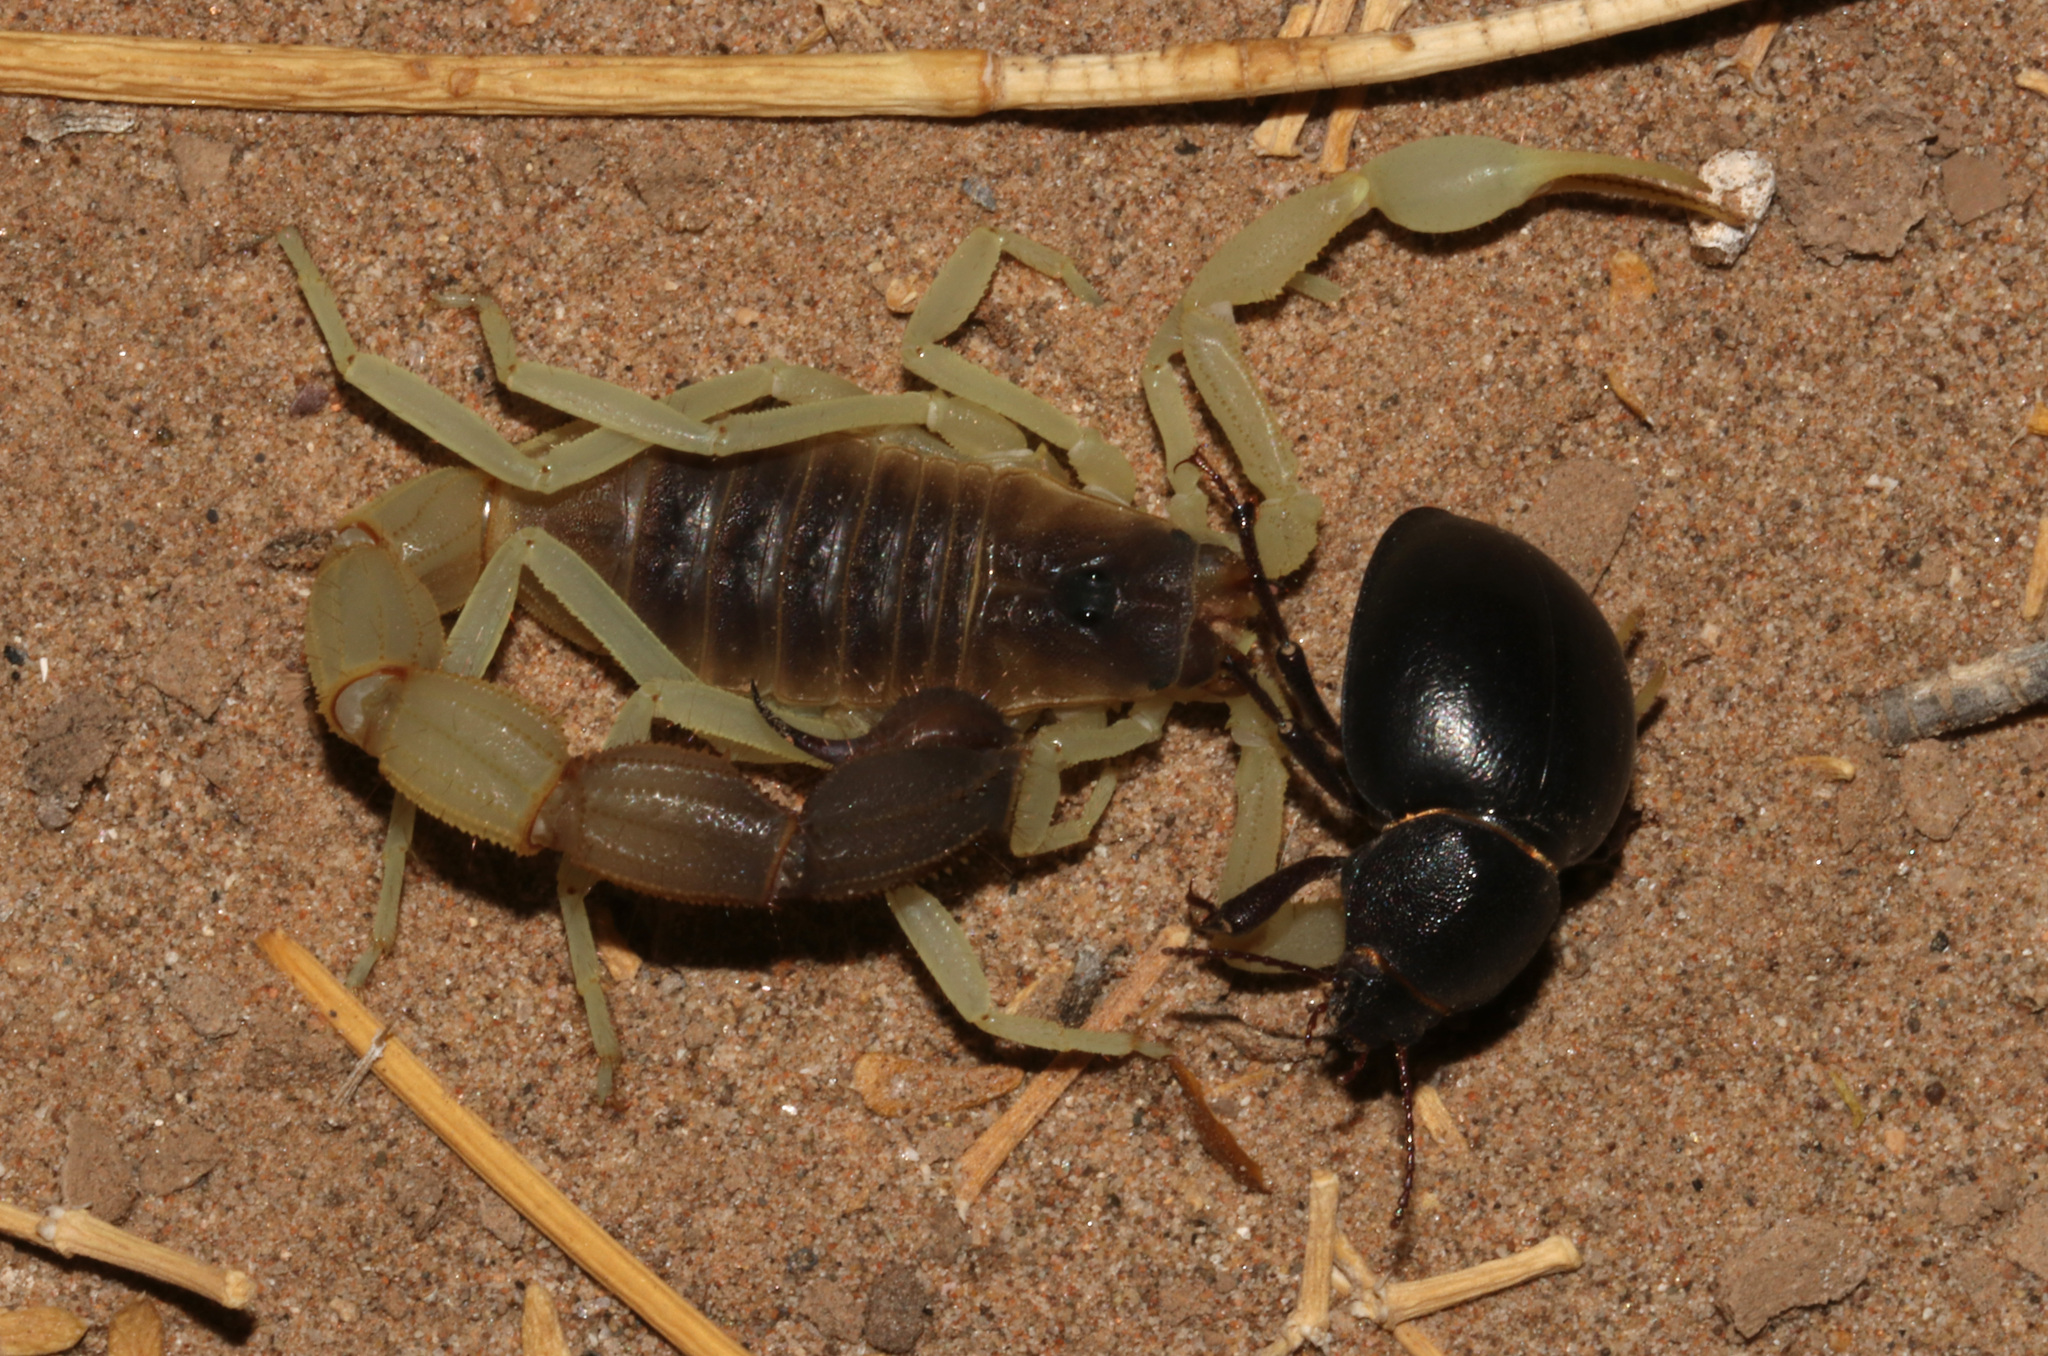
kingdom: Animalia
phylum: Arthropoda
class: Arachnida
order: Scorpiones
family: Buthidae
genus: Parabuthus
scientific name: Parabuthus schlechteri
